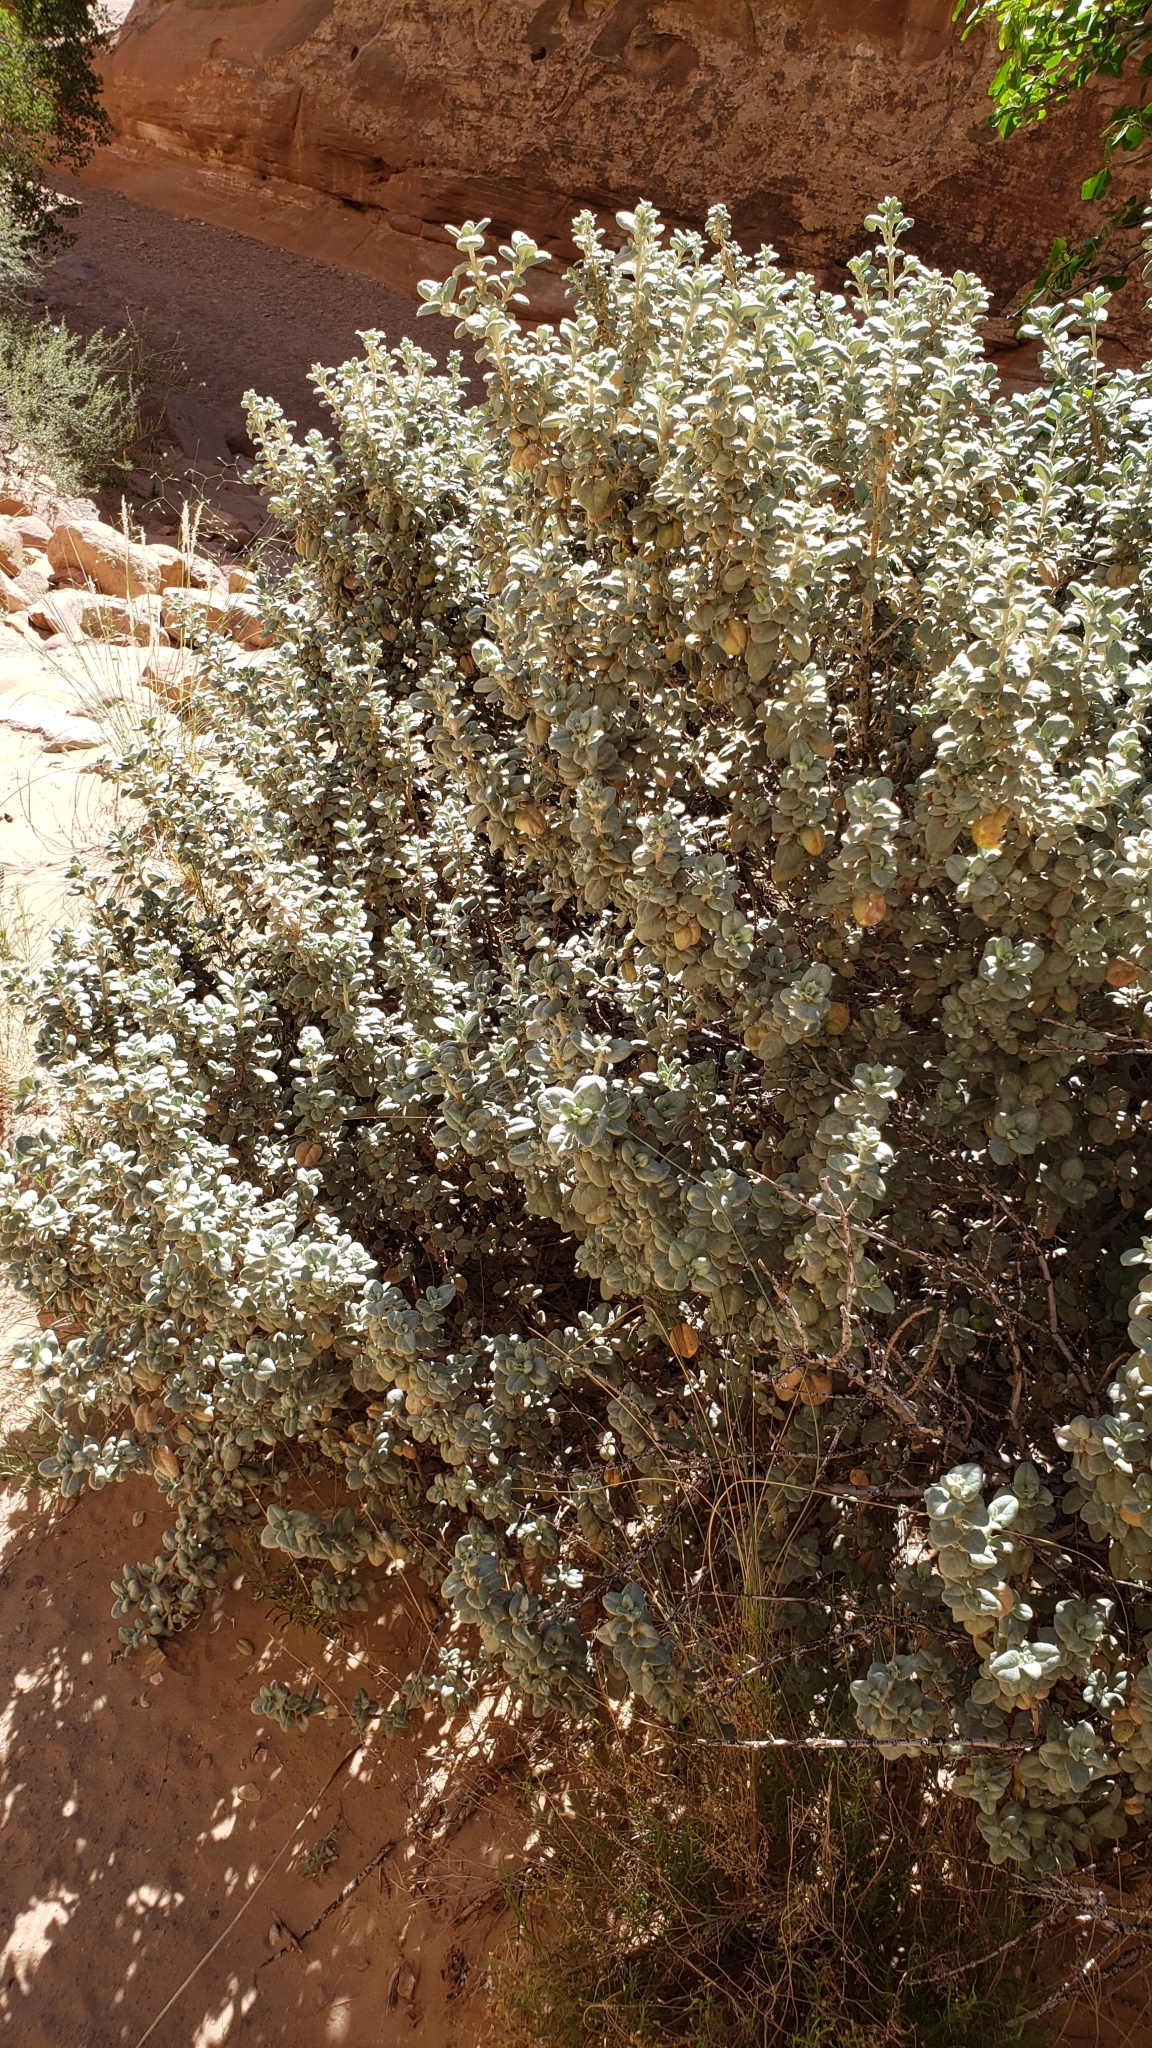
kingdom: Plantae
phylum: Tracheophyta
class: Magnoliopsida
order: Rosales
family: Elaeagnaceae
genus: Shepherdia
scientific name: Shepherdia rotundifolia
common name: Silverscale
